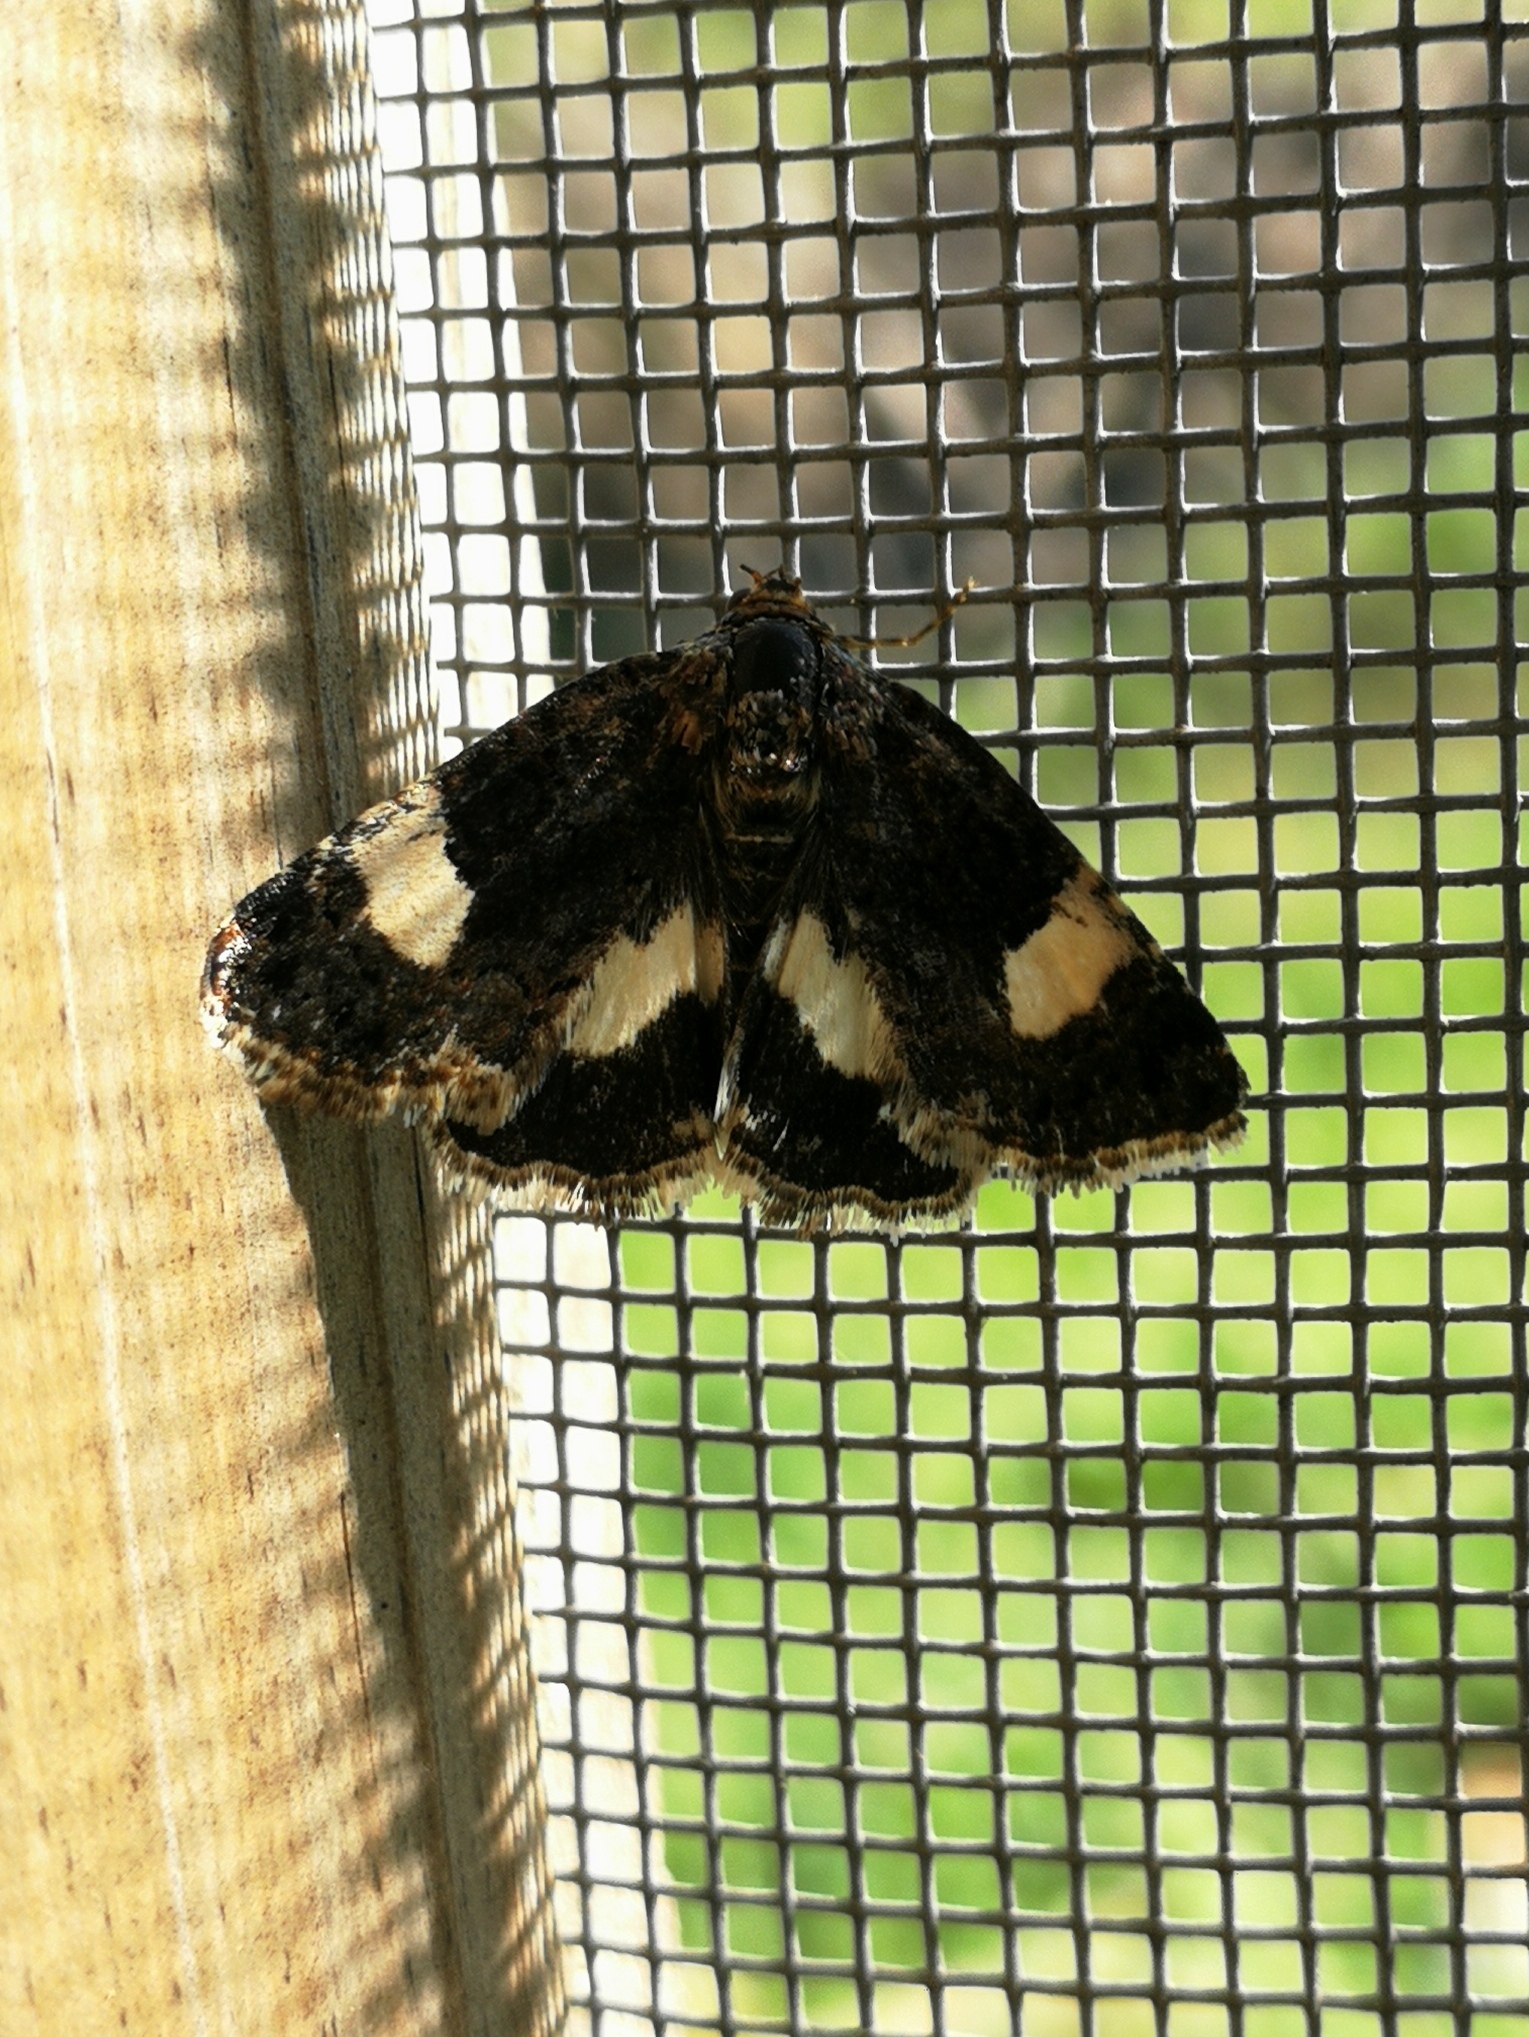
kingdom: Animalia
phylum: Arthropoda
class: Insecta
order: Lepidoptera
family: Erebidae
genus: Tyta
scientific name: Tyta luctuosa
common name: Four-spotted
